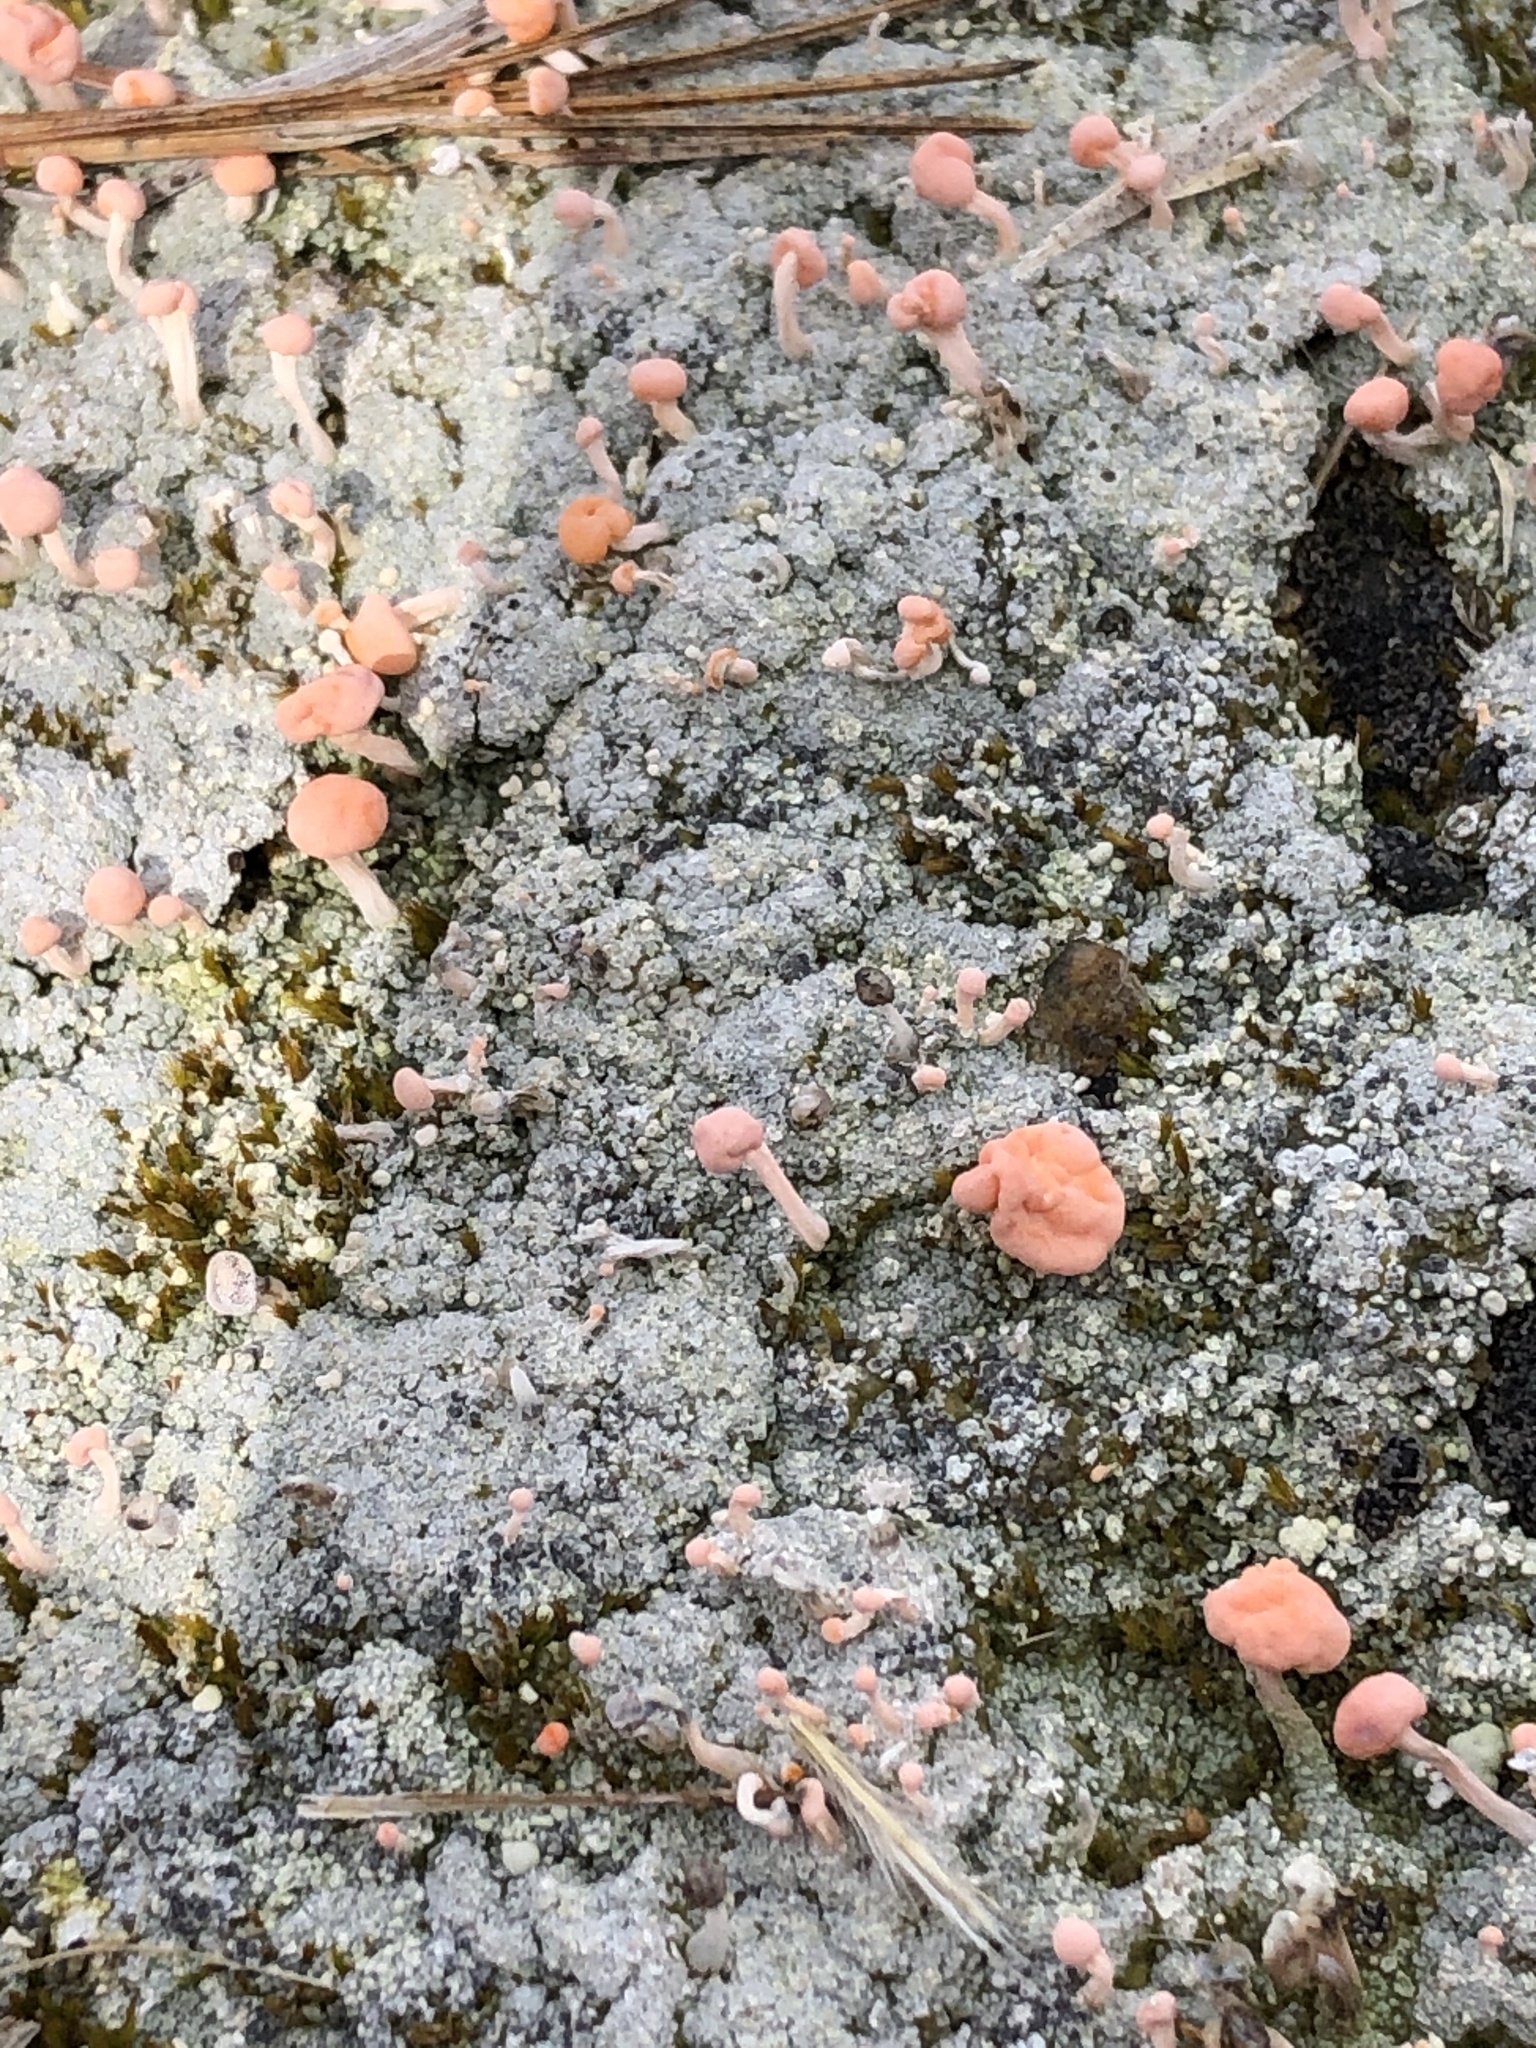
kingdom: Fungi
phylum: Ascomycota
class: Lecanoromycetes
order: Pertusariales
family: Icmadophilaceae
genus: Dibaeis
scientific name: Dibaeis baeomyces
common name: Pink earth lichen
